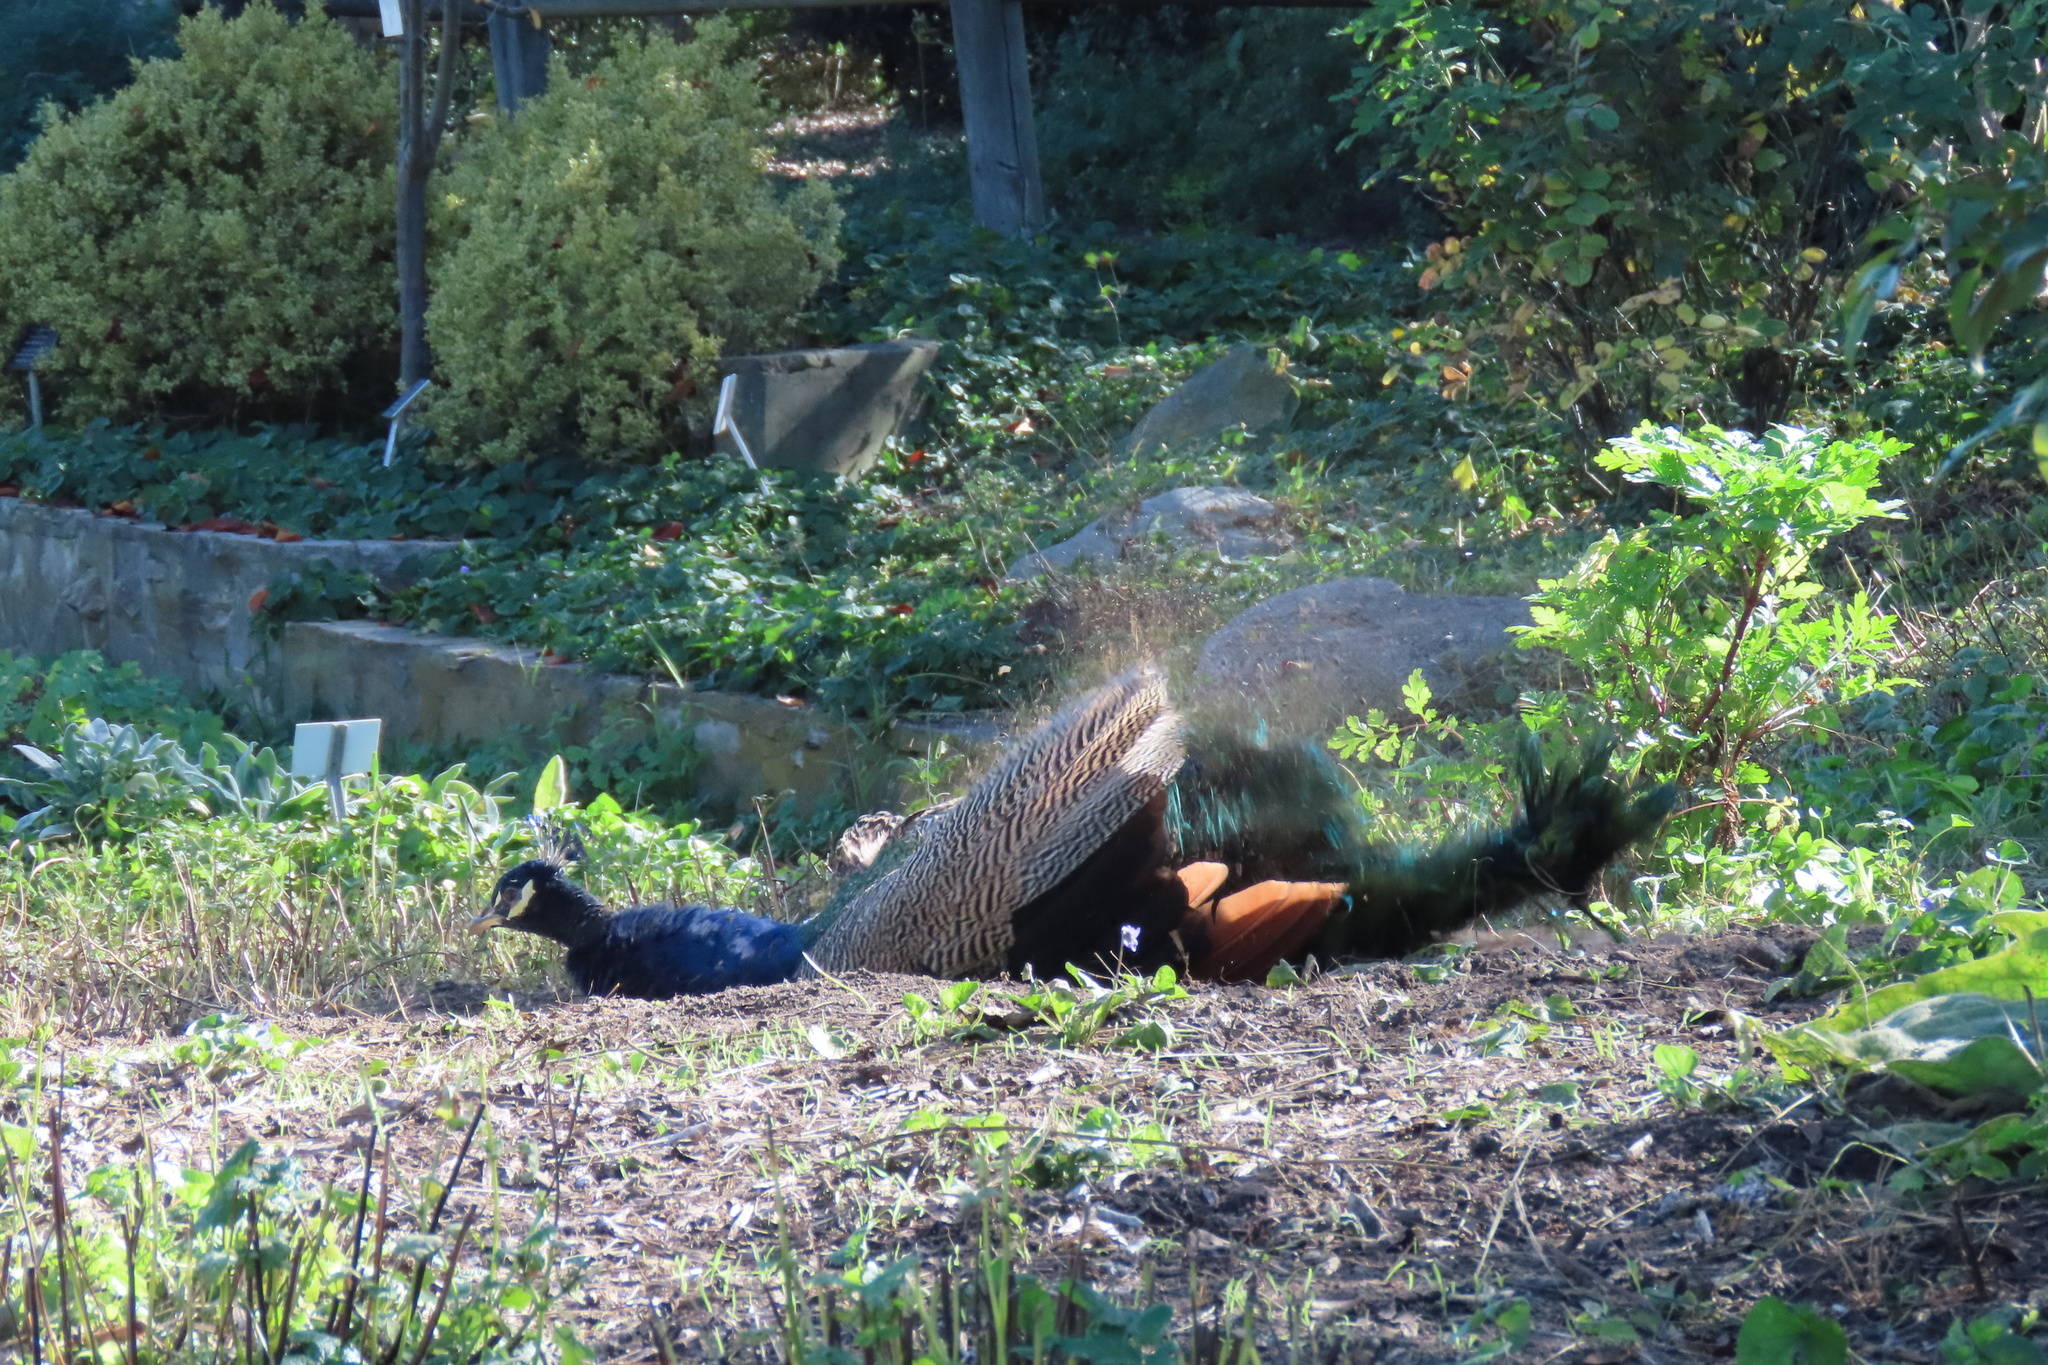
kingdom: Animalia
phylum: Chordata
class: Aves
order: Galliformes
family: Phasianidae
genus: Pavo
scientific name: Pavo cristatus
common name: Indian peafowl
